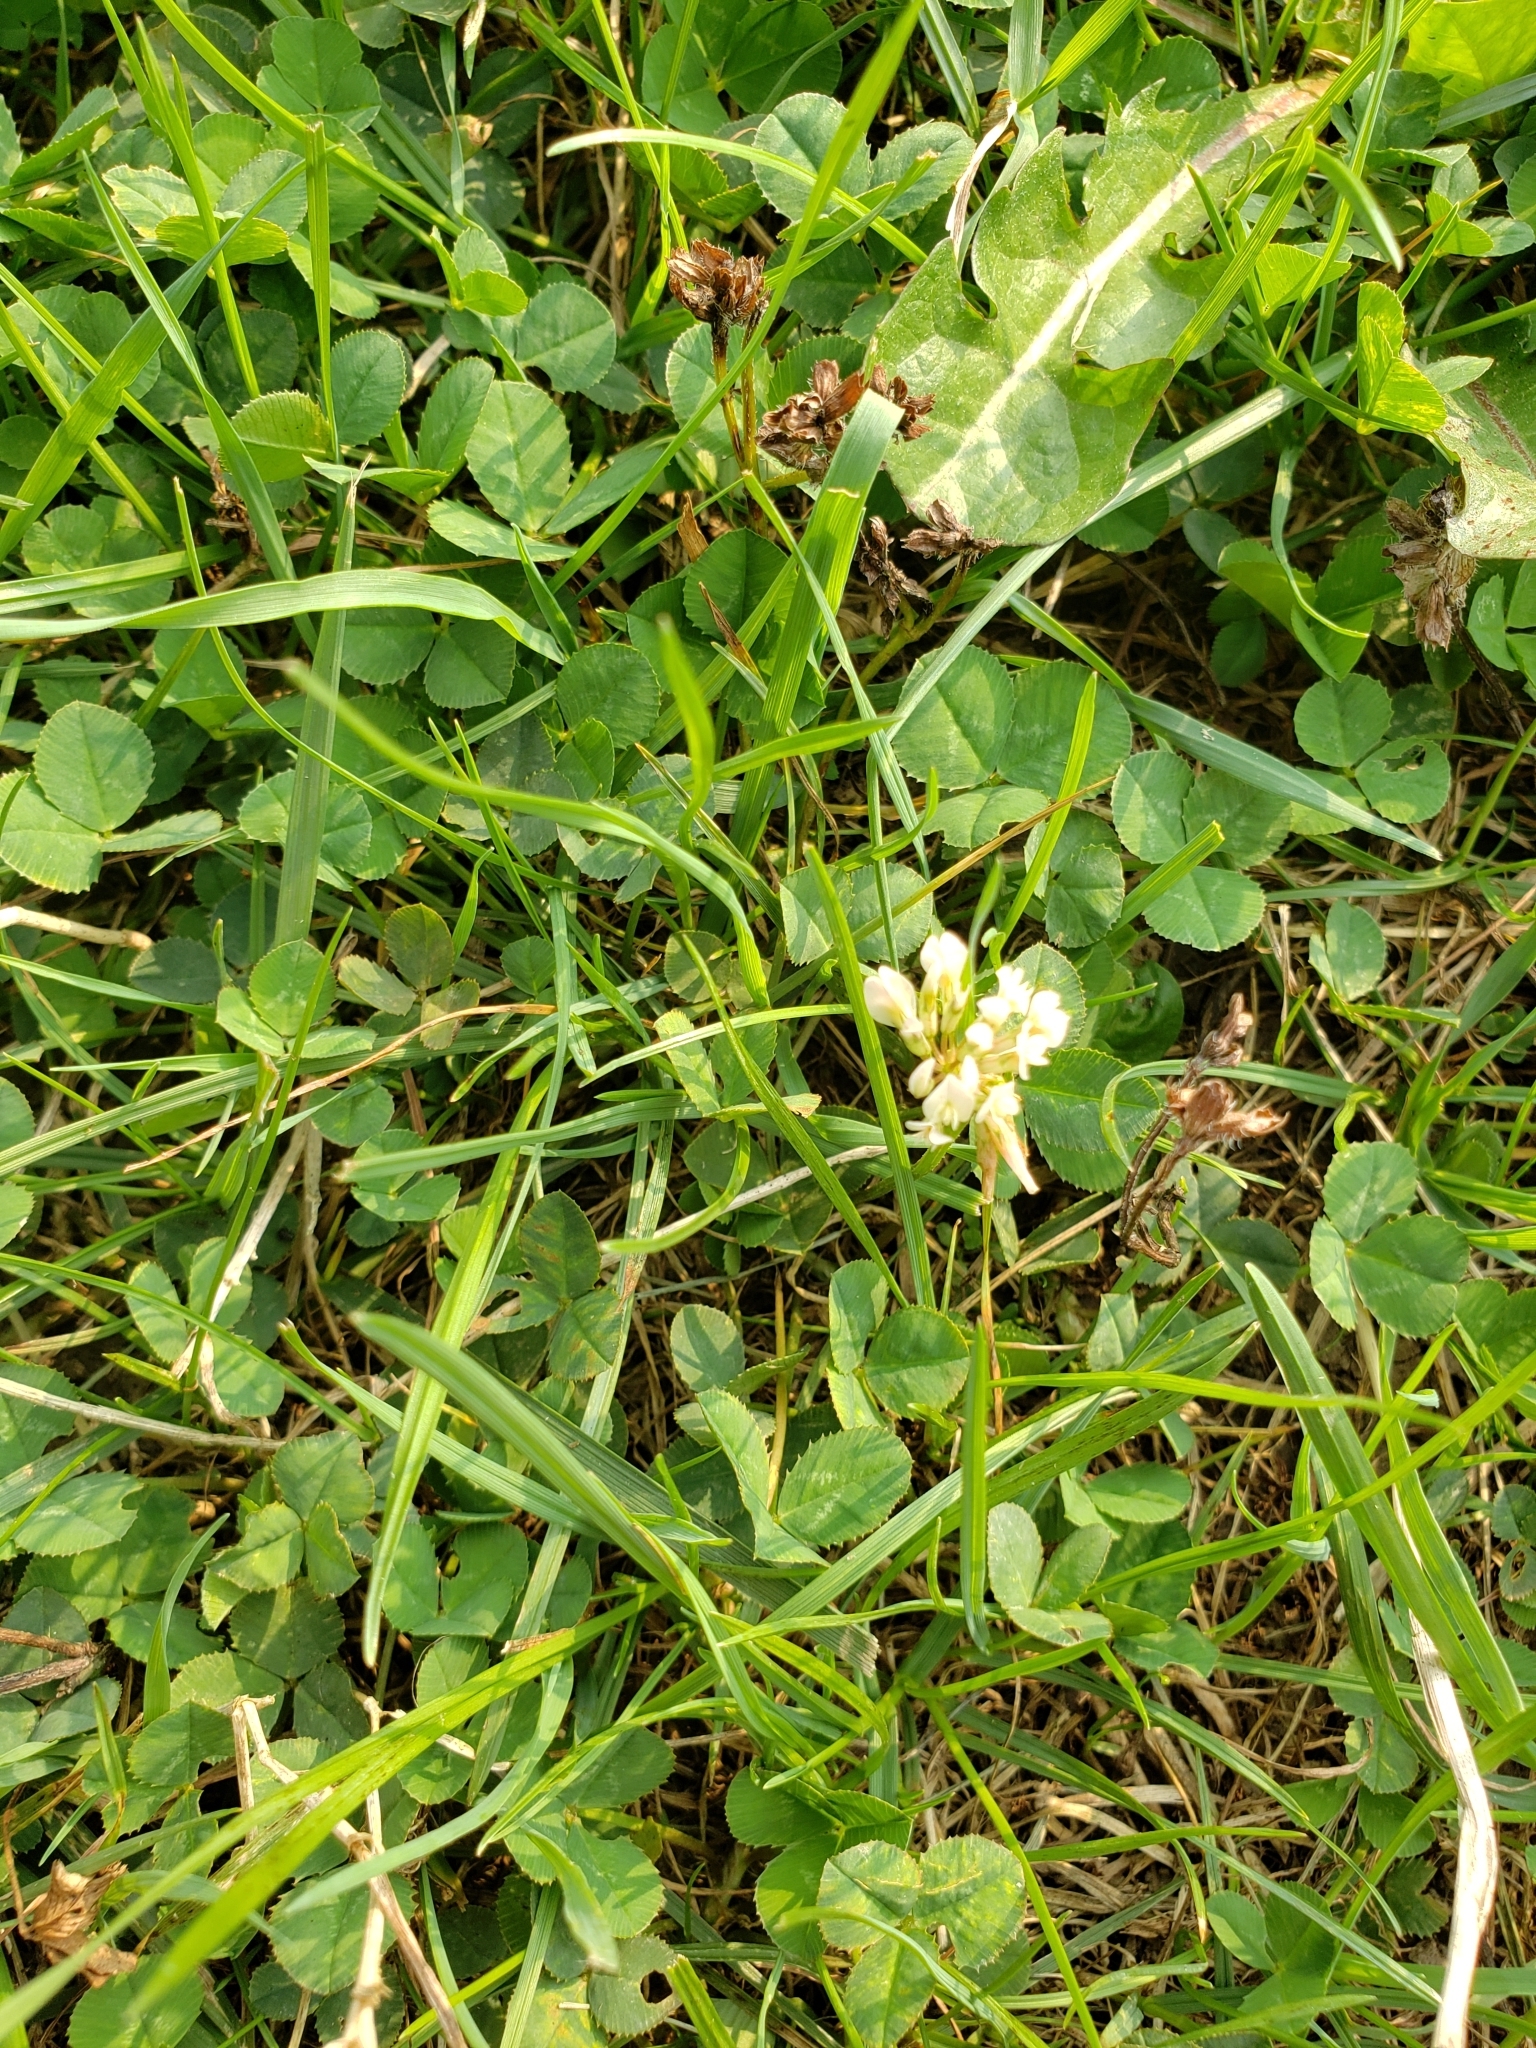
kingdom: Plantae
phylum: Tracheophyta
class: Magnoliopsida
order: Fabales
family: Fabaceae
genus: Trifolium
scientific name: Trifolium repens
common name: White clover
